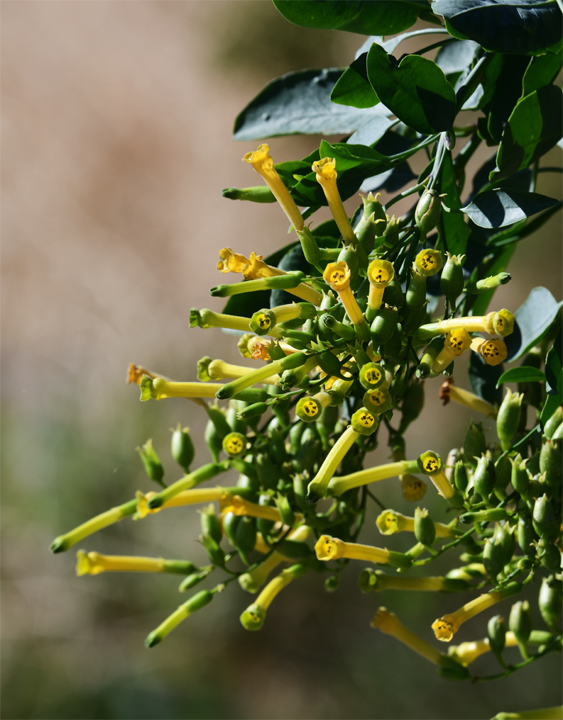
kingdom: Plantae
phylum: Tracheophyta
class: Magnoliopsida
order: Solanales
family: Solanaceae
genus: Nicotiana
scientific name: Nicotiana glauca
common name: Tree tobacco
